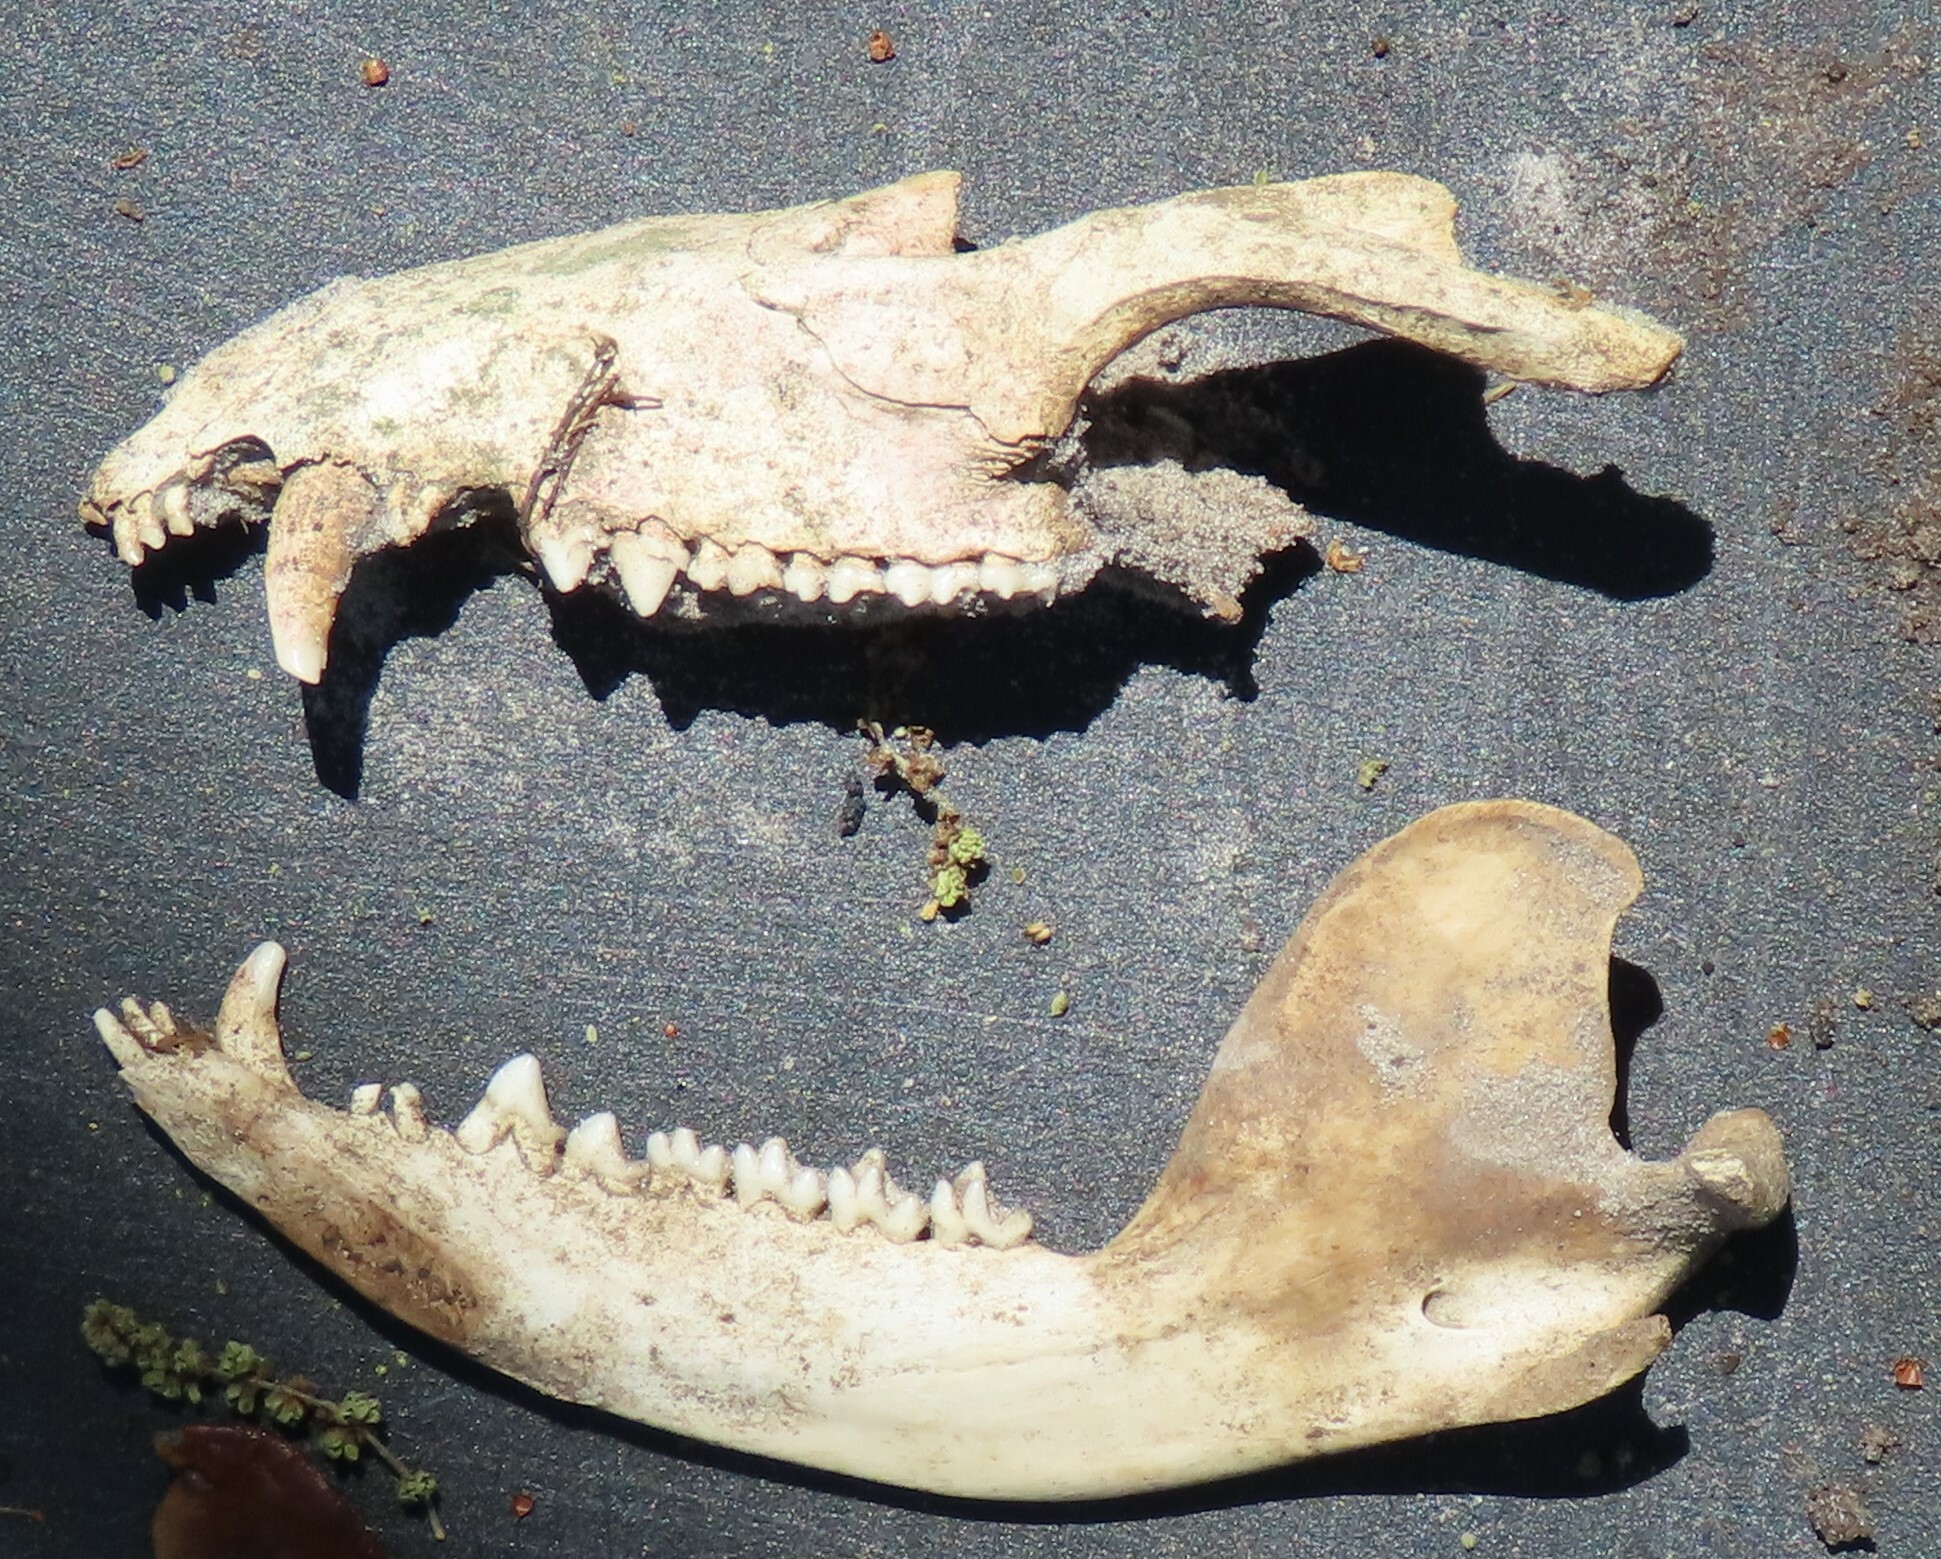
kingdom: Animalia
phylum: Chordata
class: Mammalia
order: Didelphimorphia
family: Didelphidae
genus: Didelphis
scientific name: Didelphis virginiana
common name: Virginia opossum
